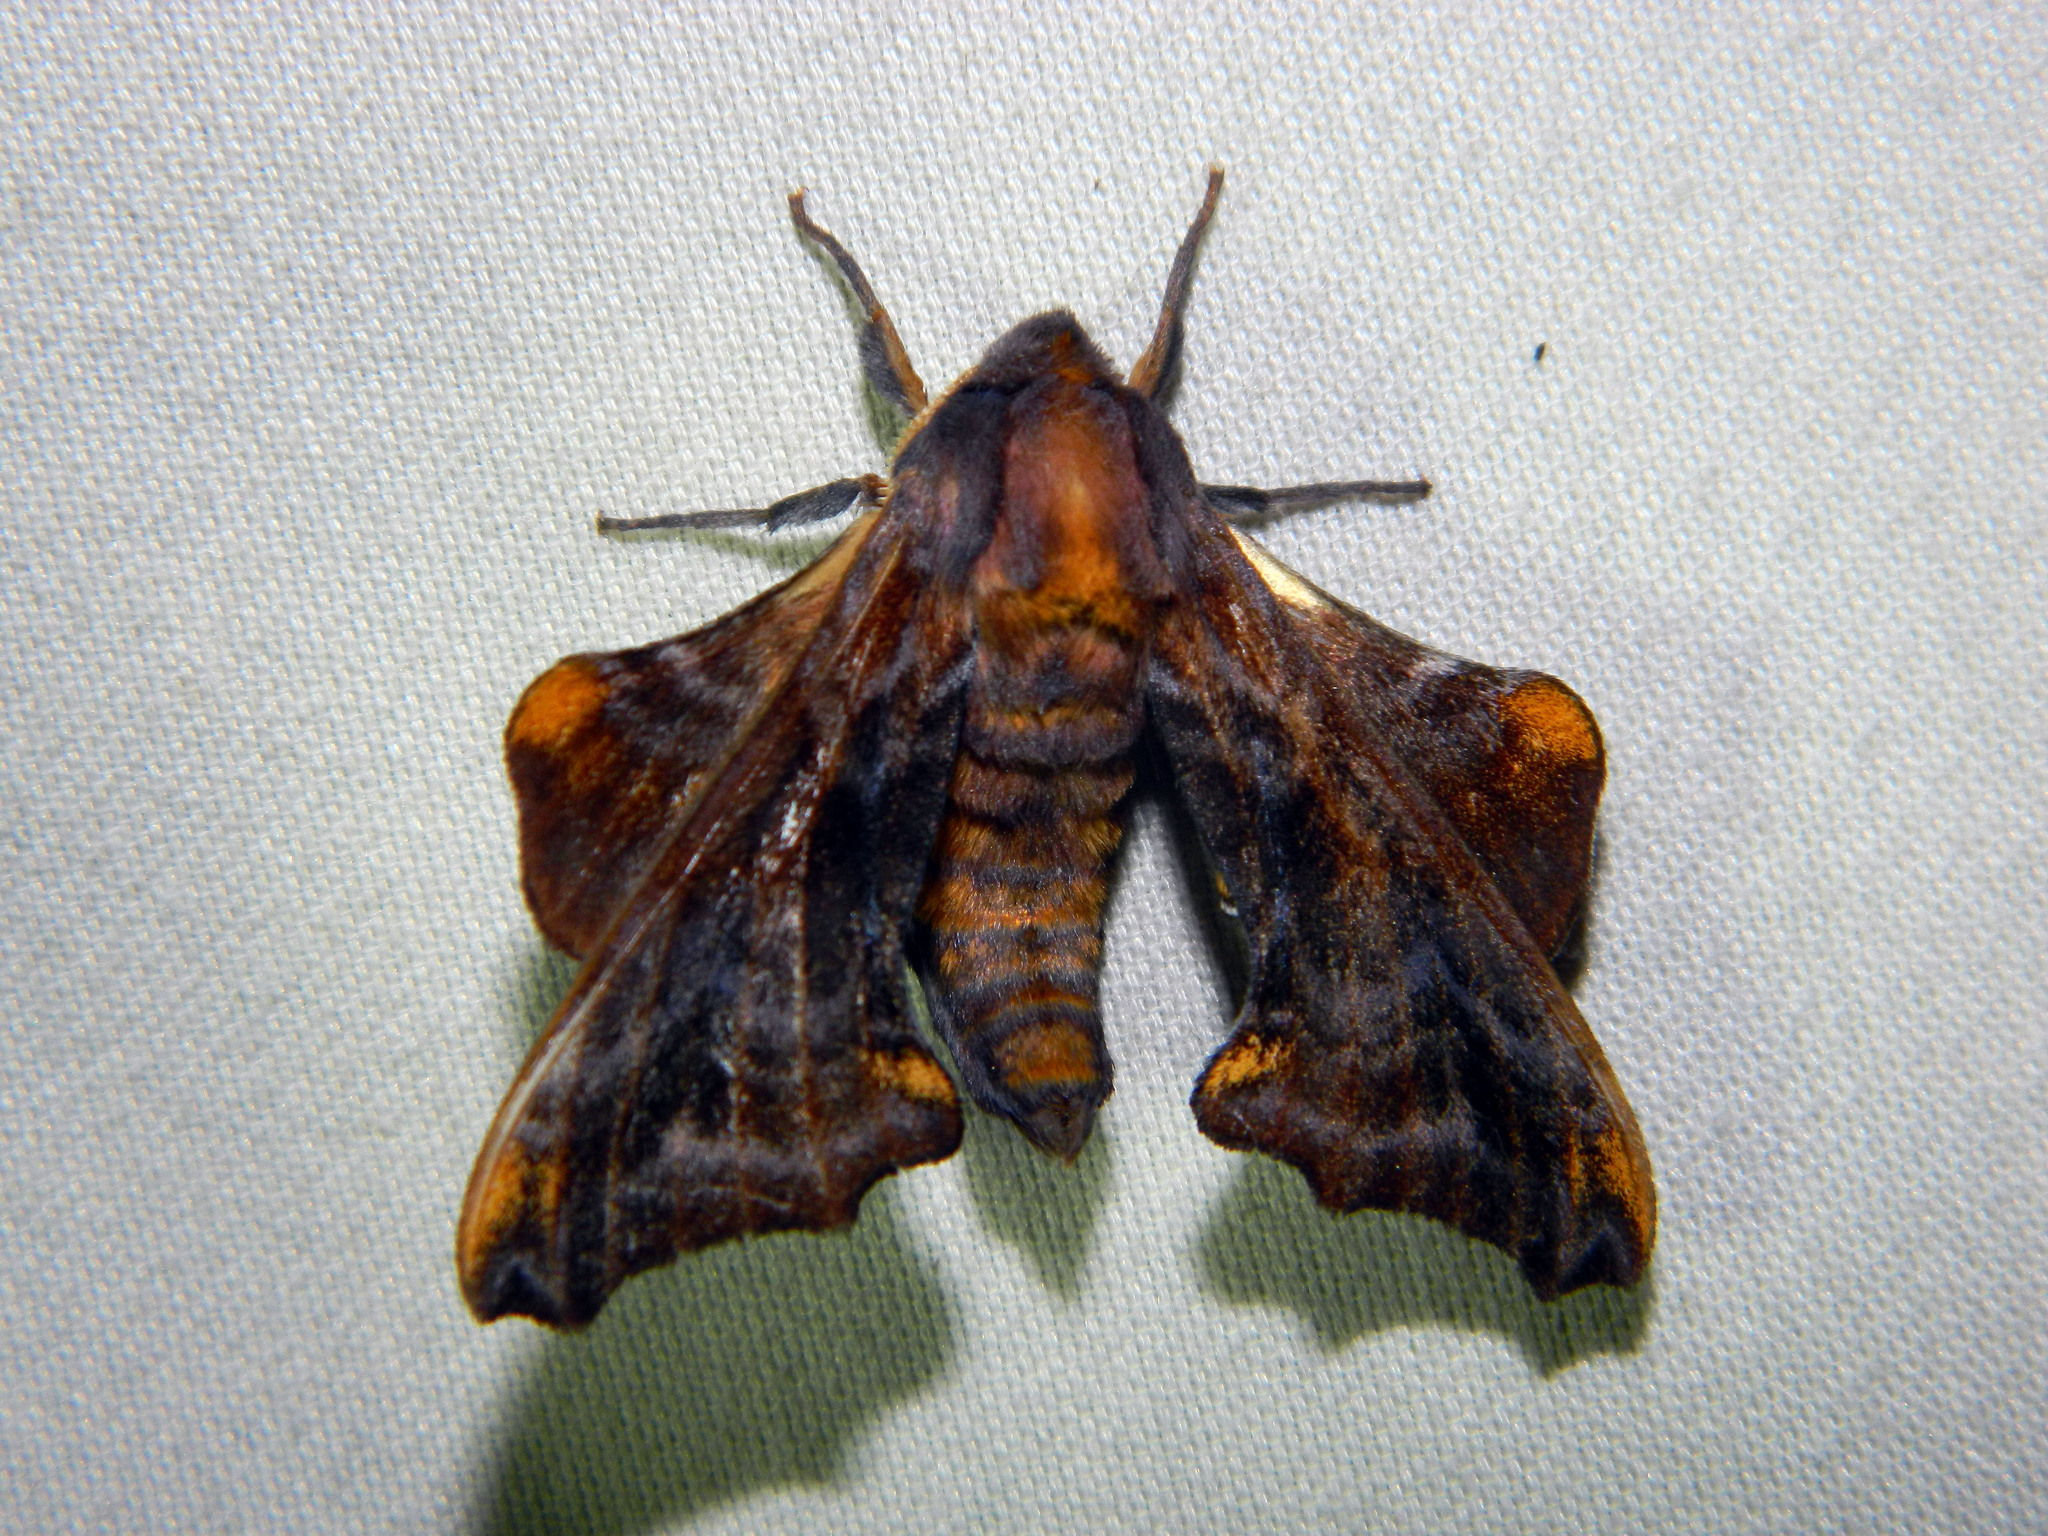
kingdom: Animalia
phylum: Arthropoda
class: Insecta
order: Lepidoptera
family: Sphingidae
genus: Paonias
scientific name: Paonias myops
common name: Small-eyed sphinx
